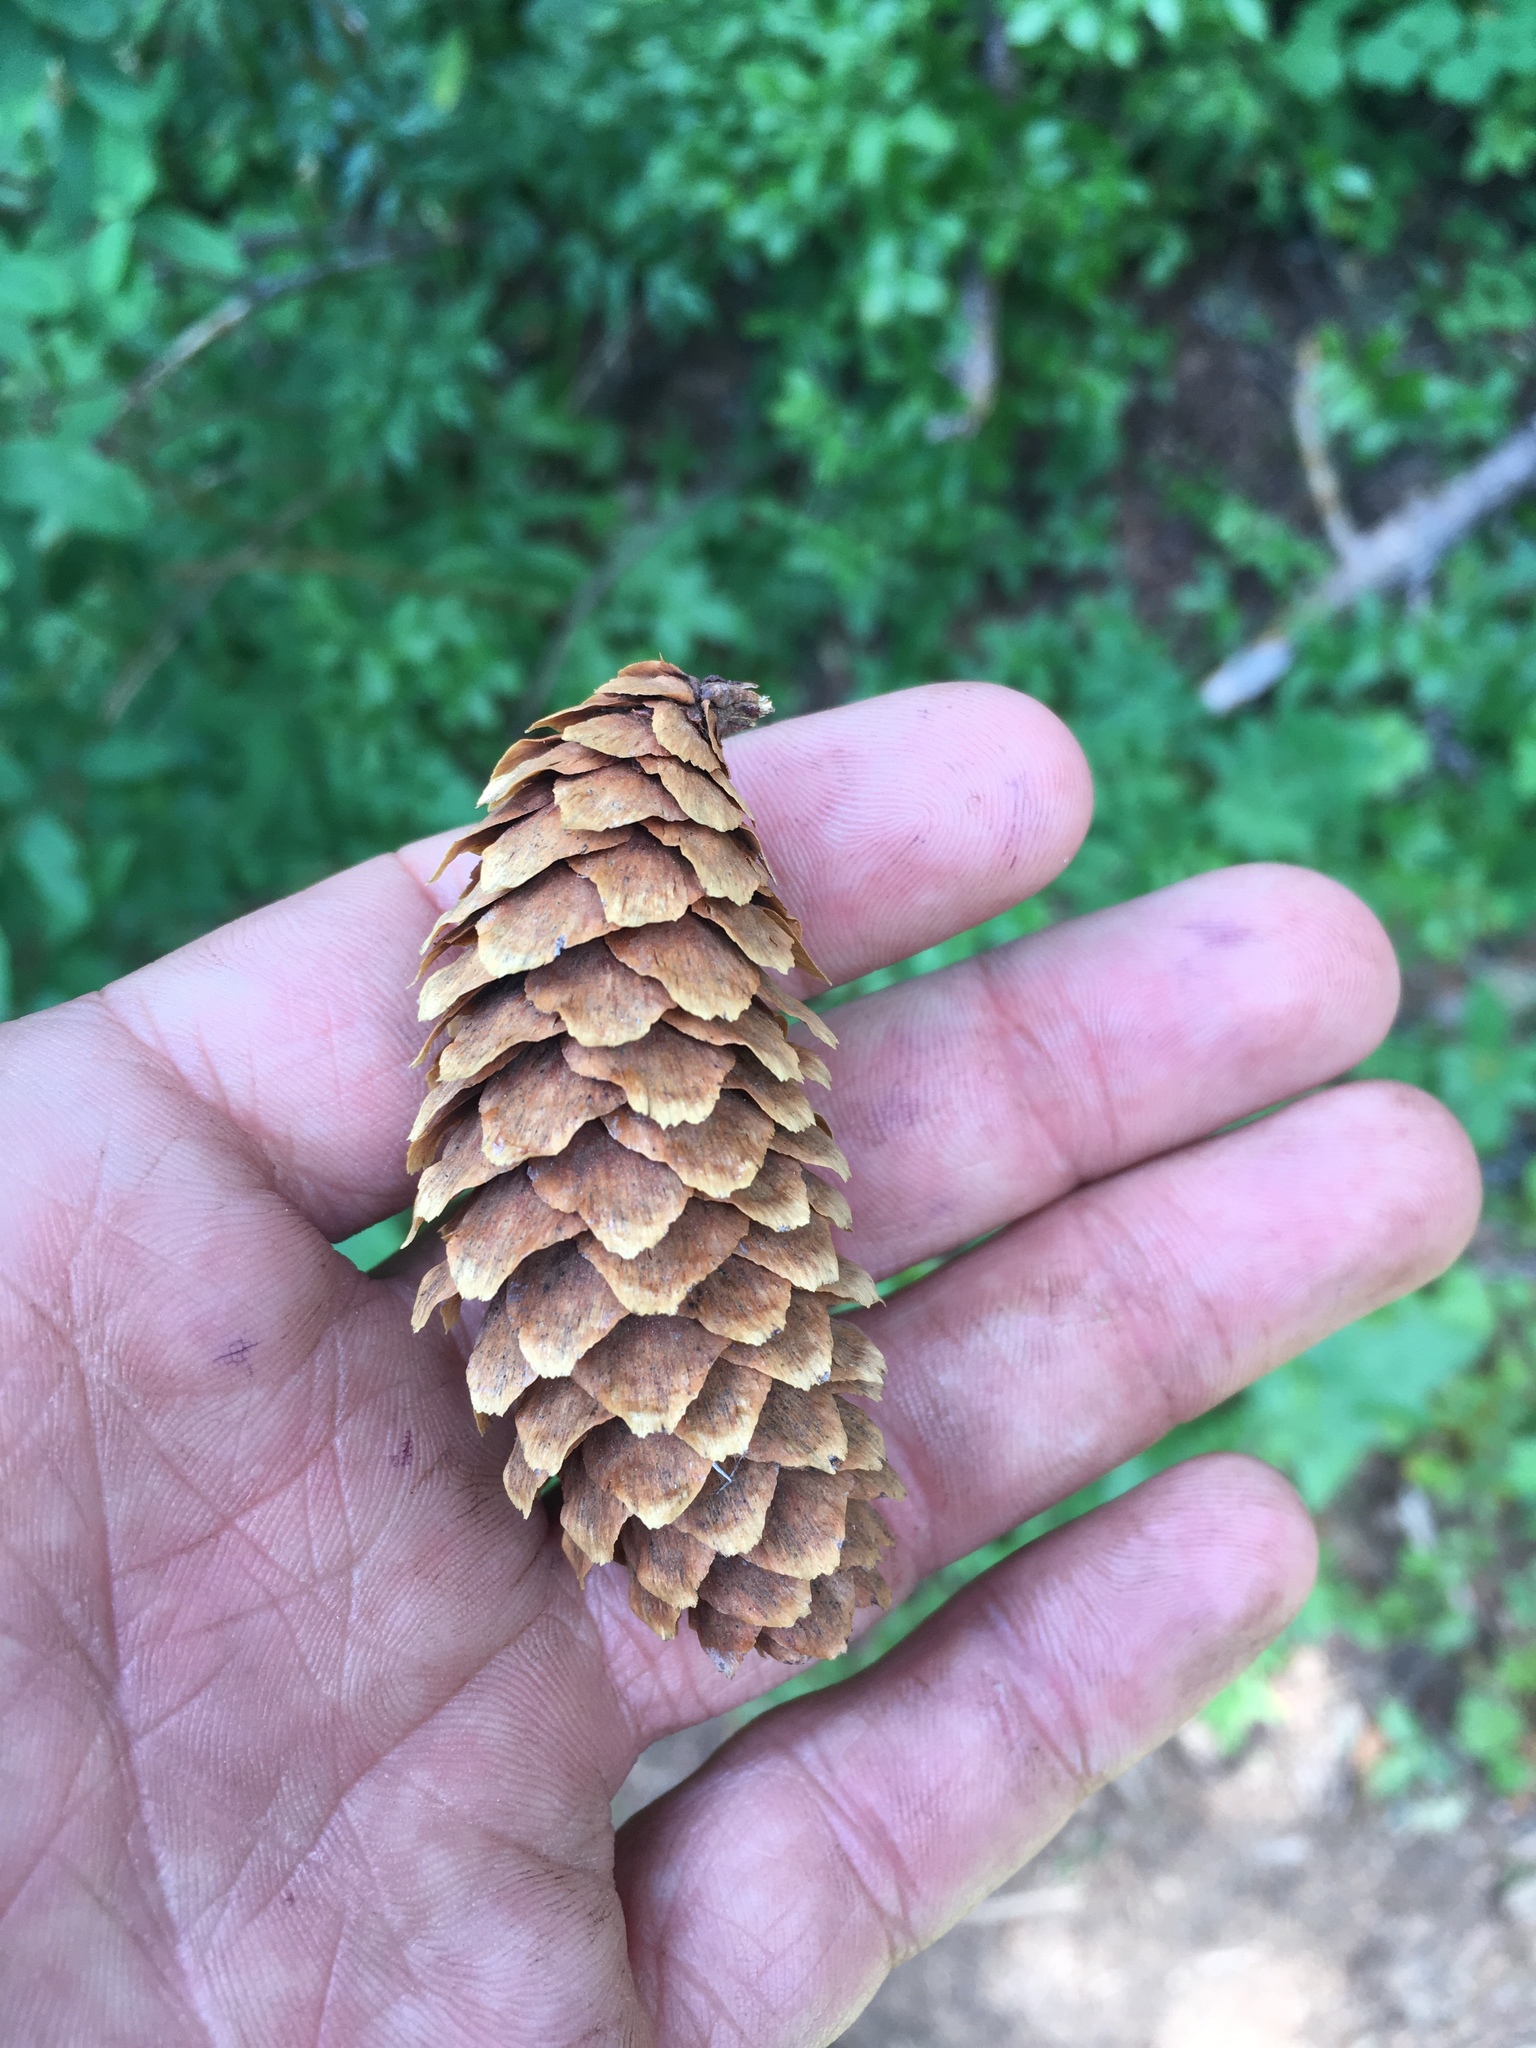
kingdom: Plantae
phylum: Tracheophyta
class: Pinopsida
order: Pinales
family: Pinaceae
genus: Picea
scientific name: Picea engelmannii
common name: Engelmann spruce
